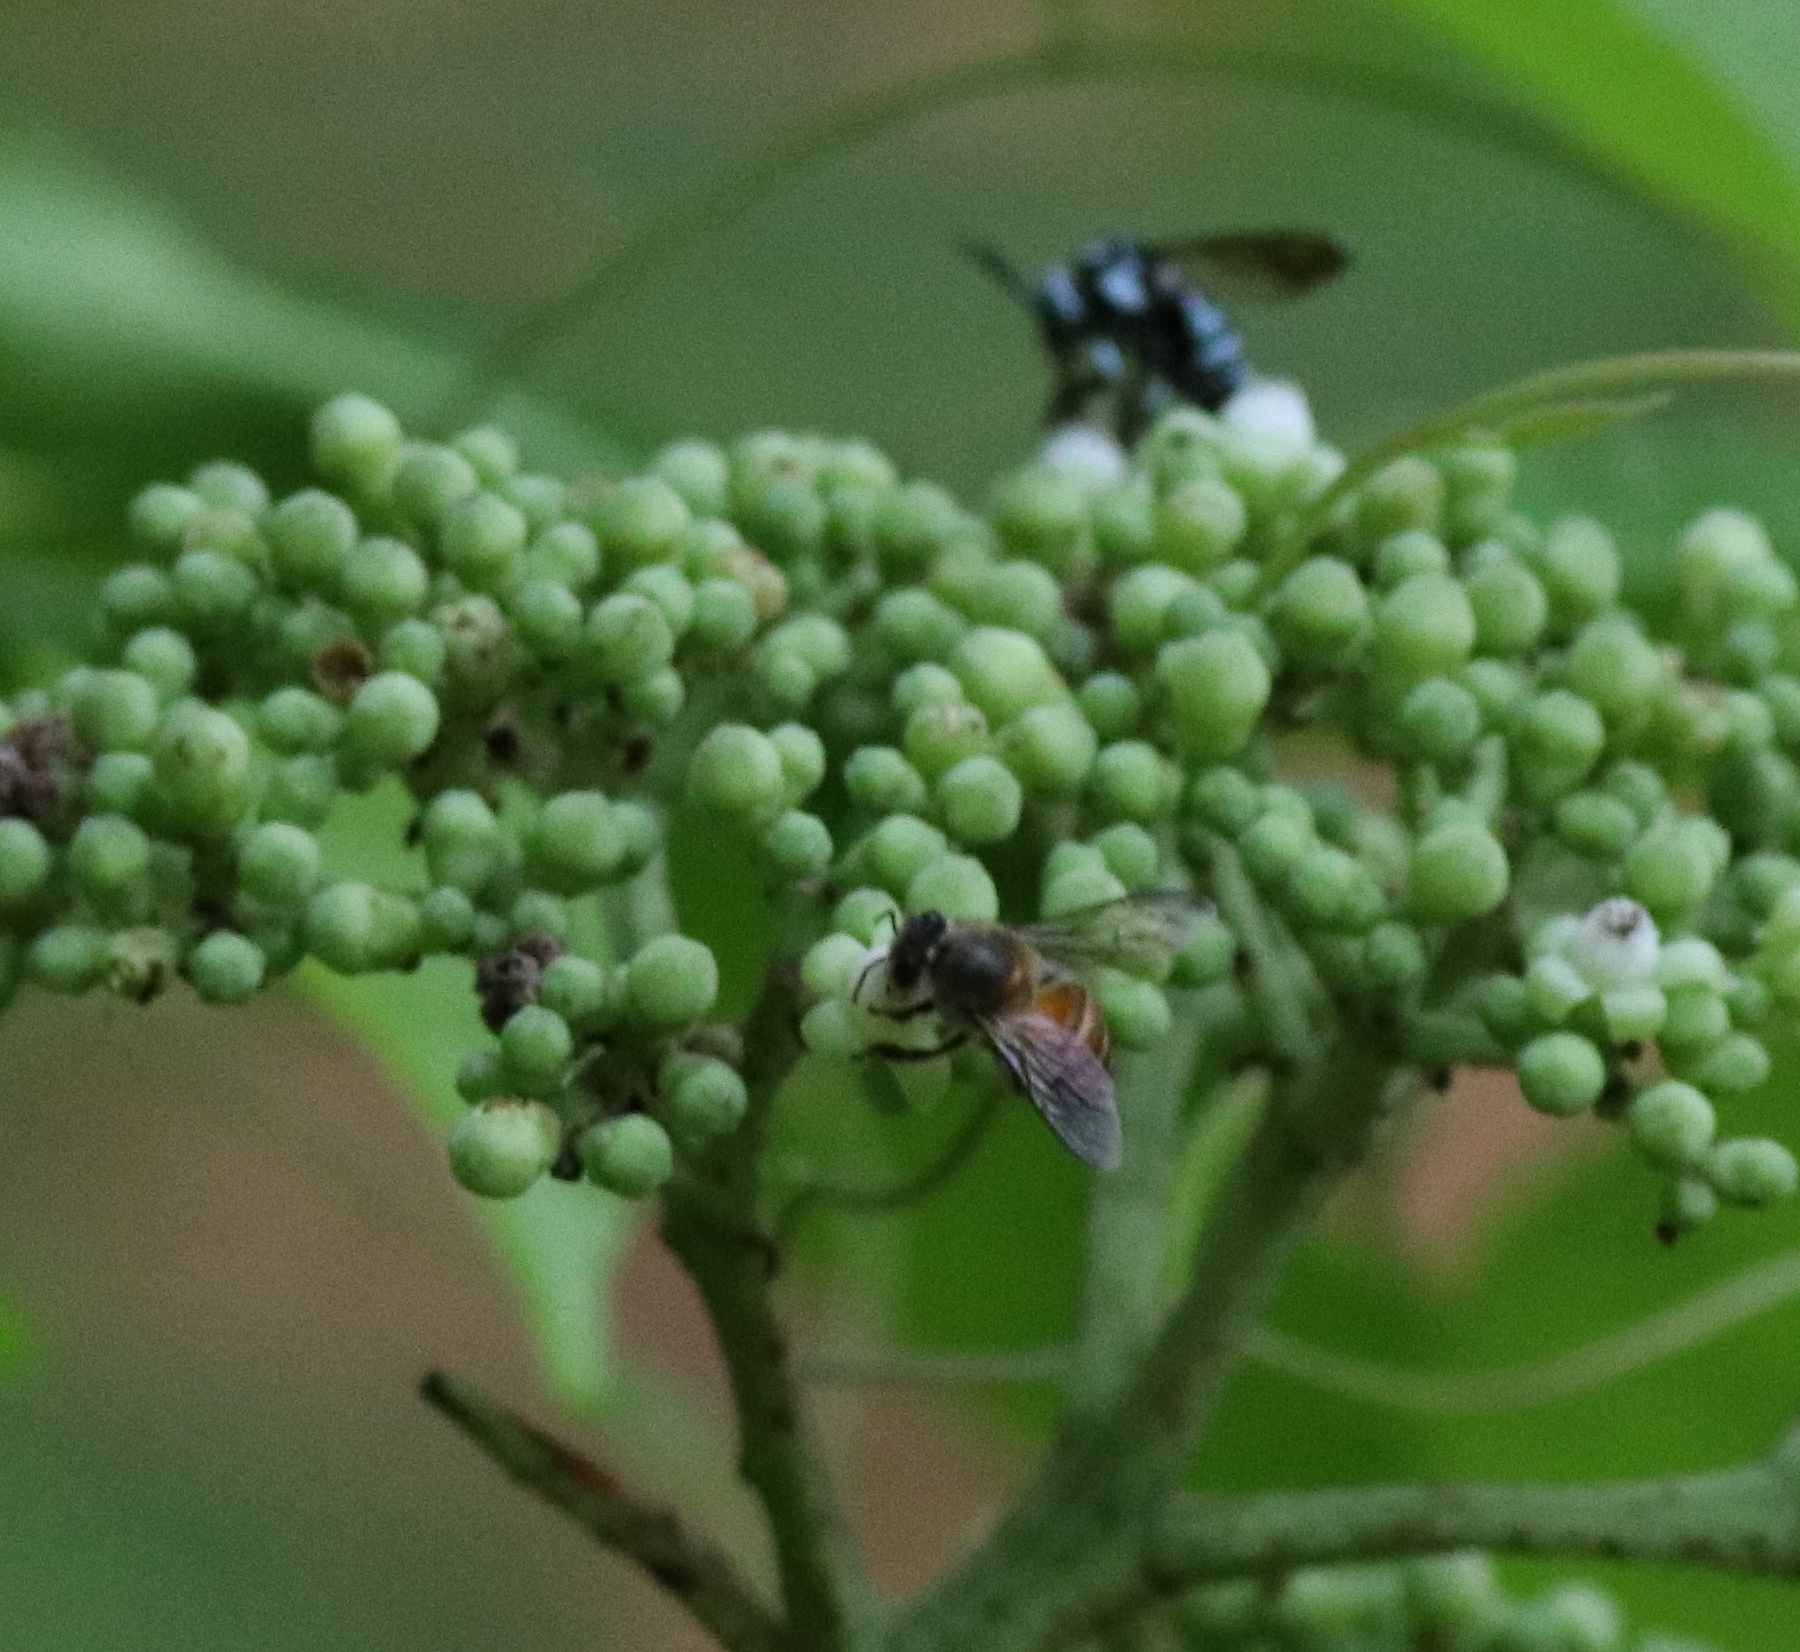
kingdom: Animalia
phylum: Arthropoda
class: Insecta
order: Hymenoptera
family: Apidae
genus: Apis
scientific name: Apis cerana
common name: Honey bee
